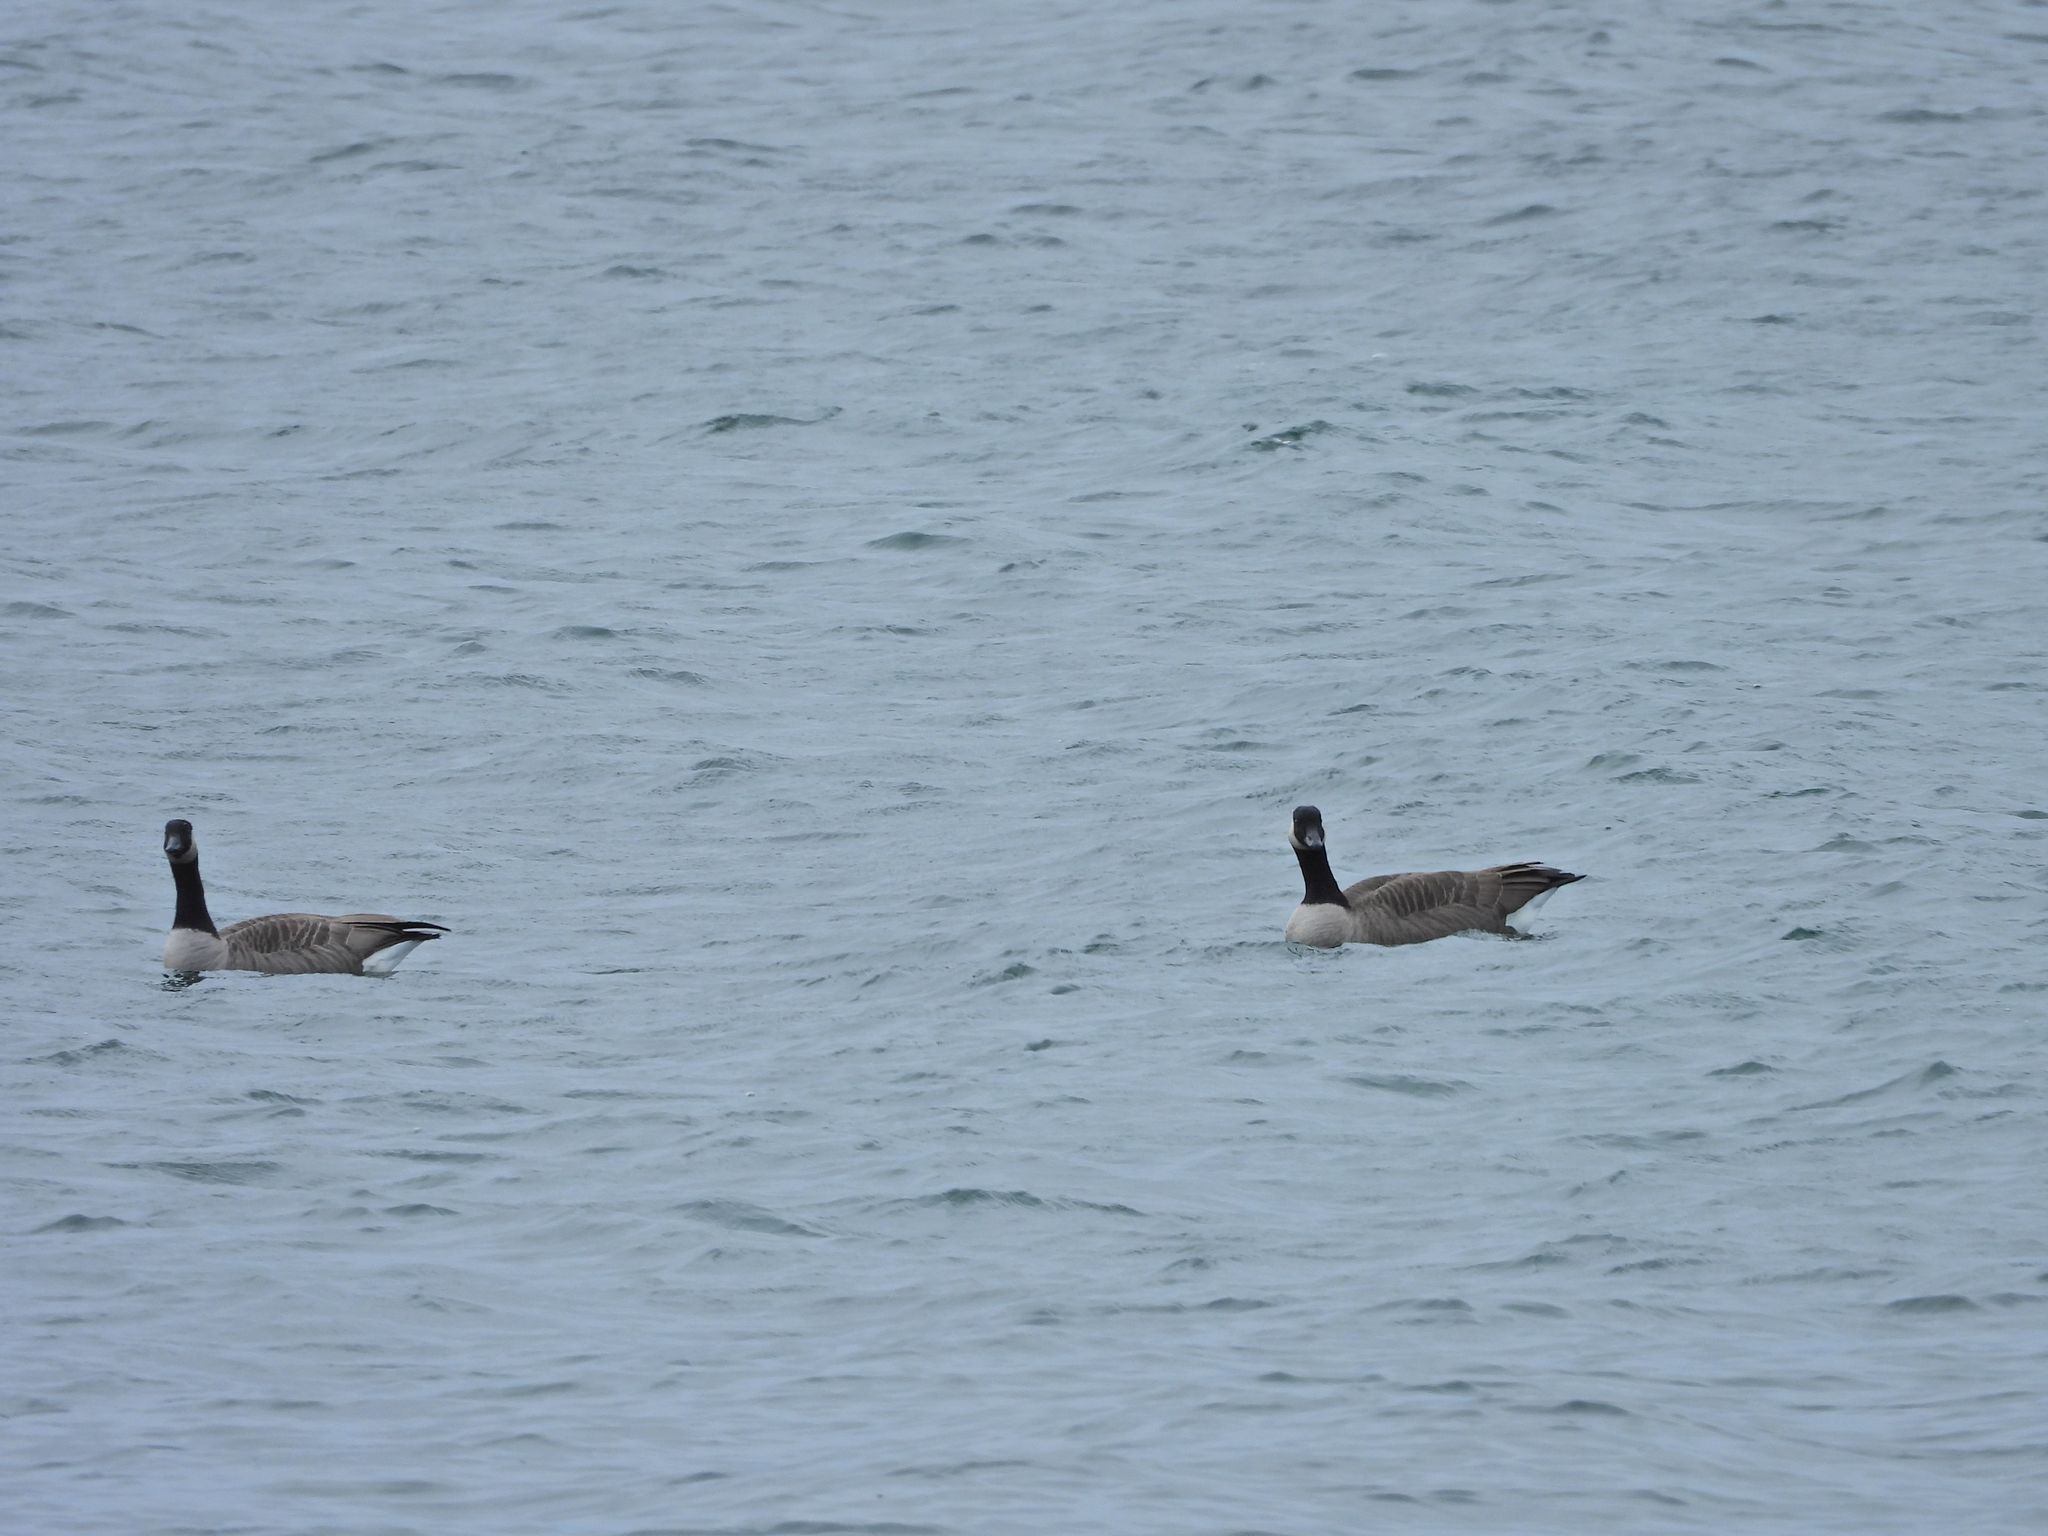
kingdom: Animalia
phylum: Chordata
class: Aves
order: Anseriformes
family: Anatidae
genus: Branta
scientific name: Branta canadensis
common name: Canada goose
